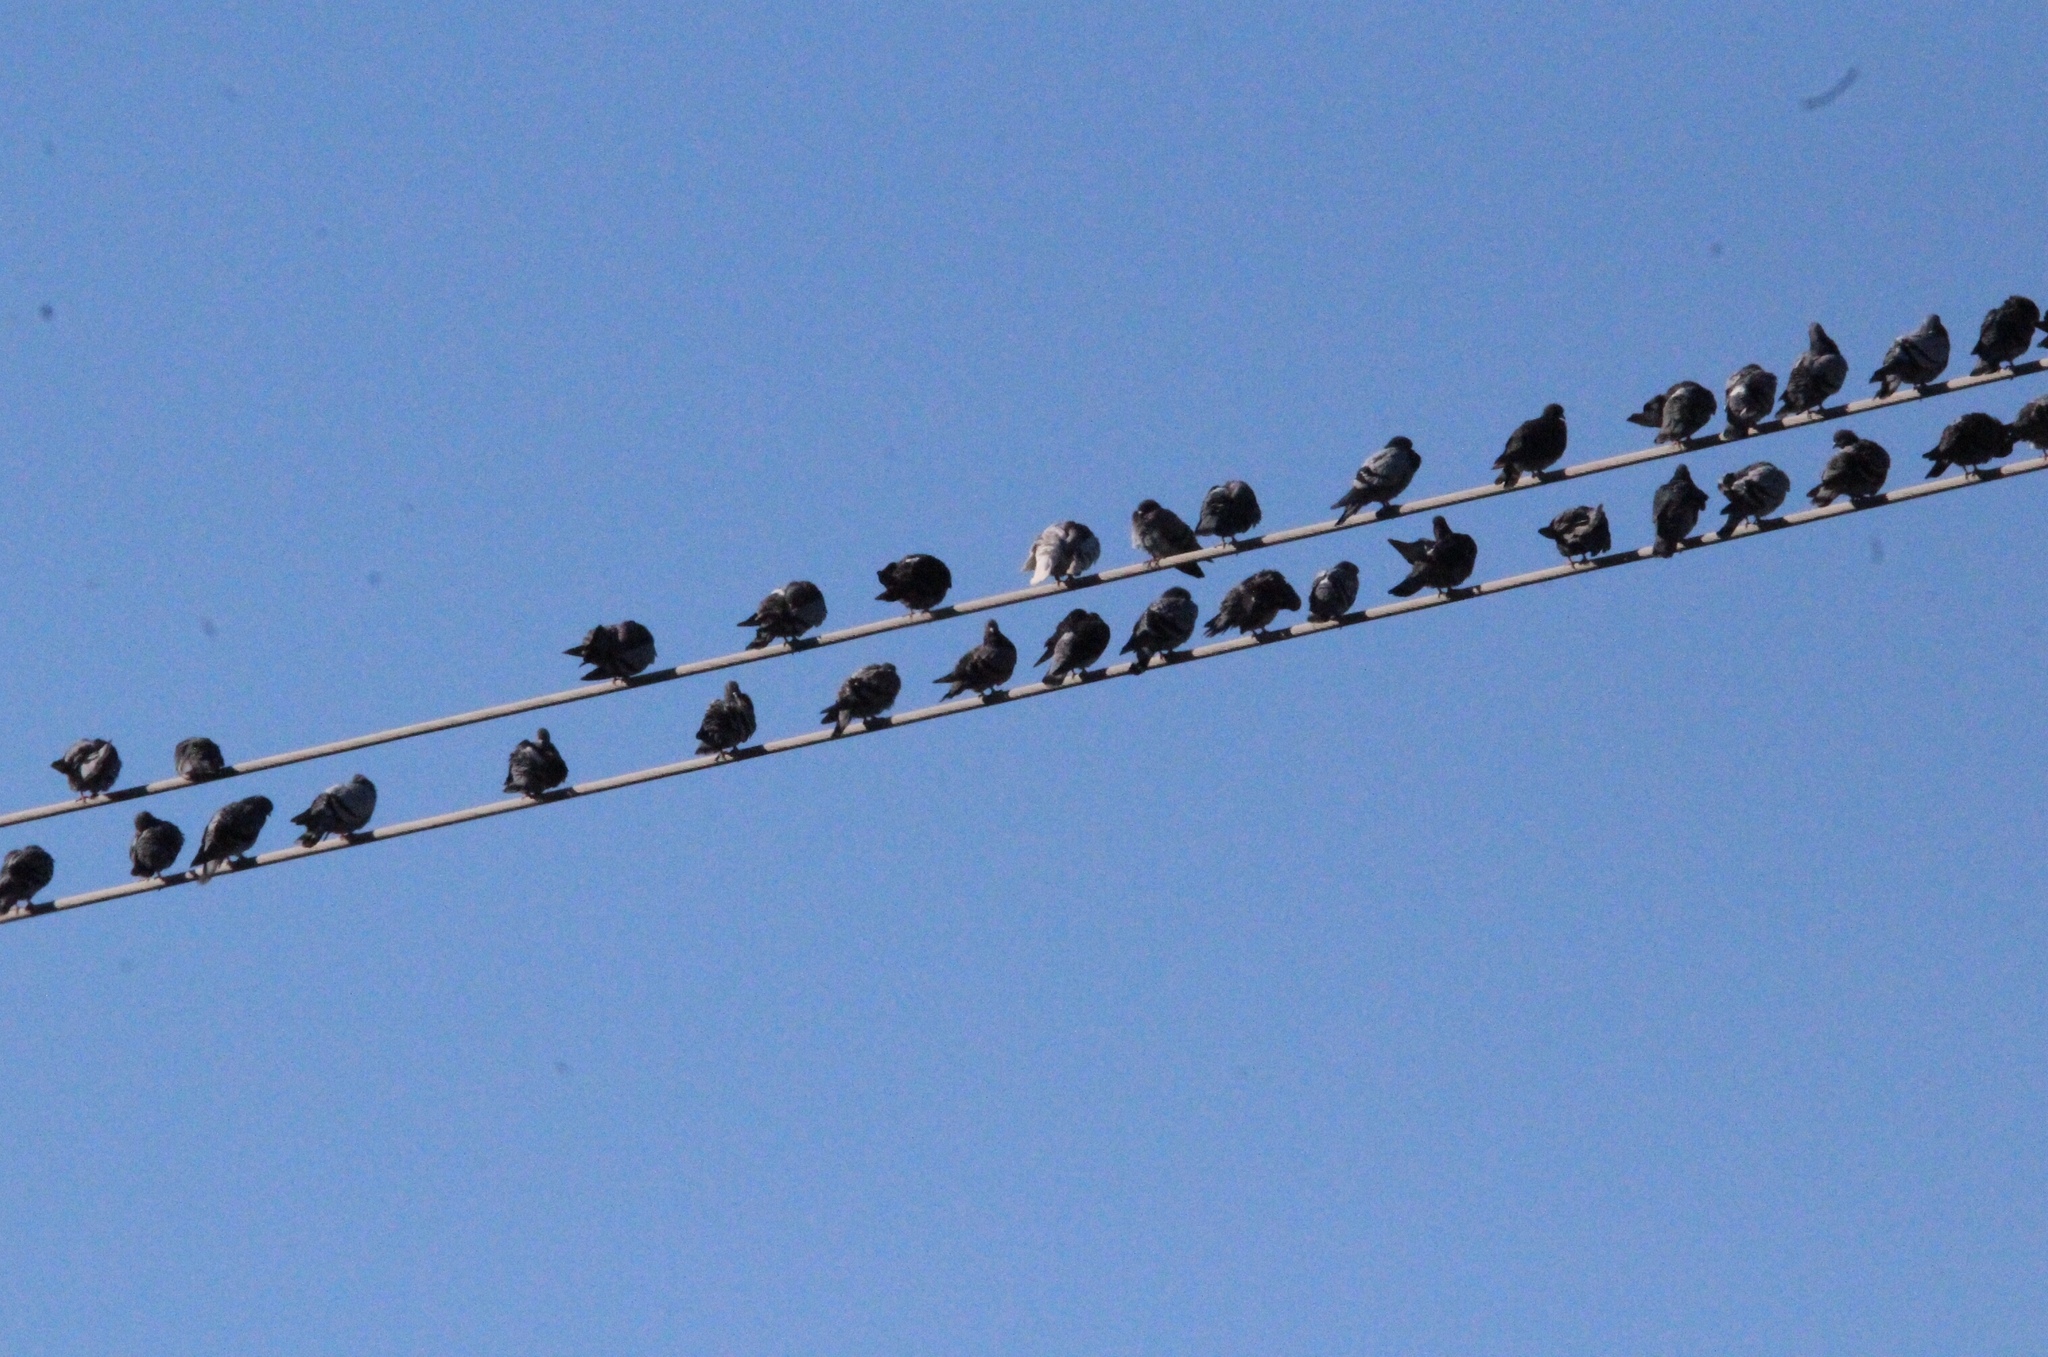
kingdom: Animalia
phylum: Chordata
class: Aves
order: Columbiformes
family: Columbidae
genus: Columba
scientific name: Columba livia
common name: Rock pigeon
